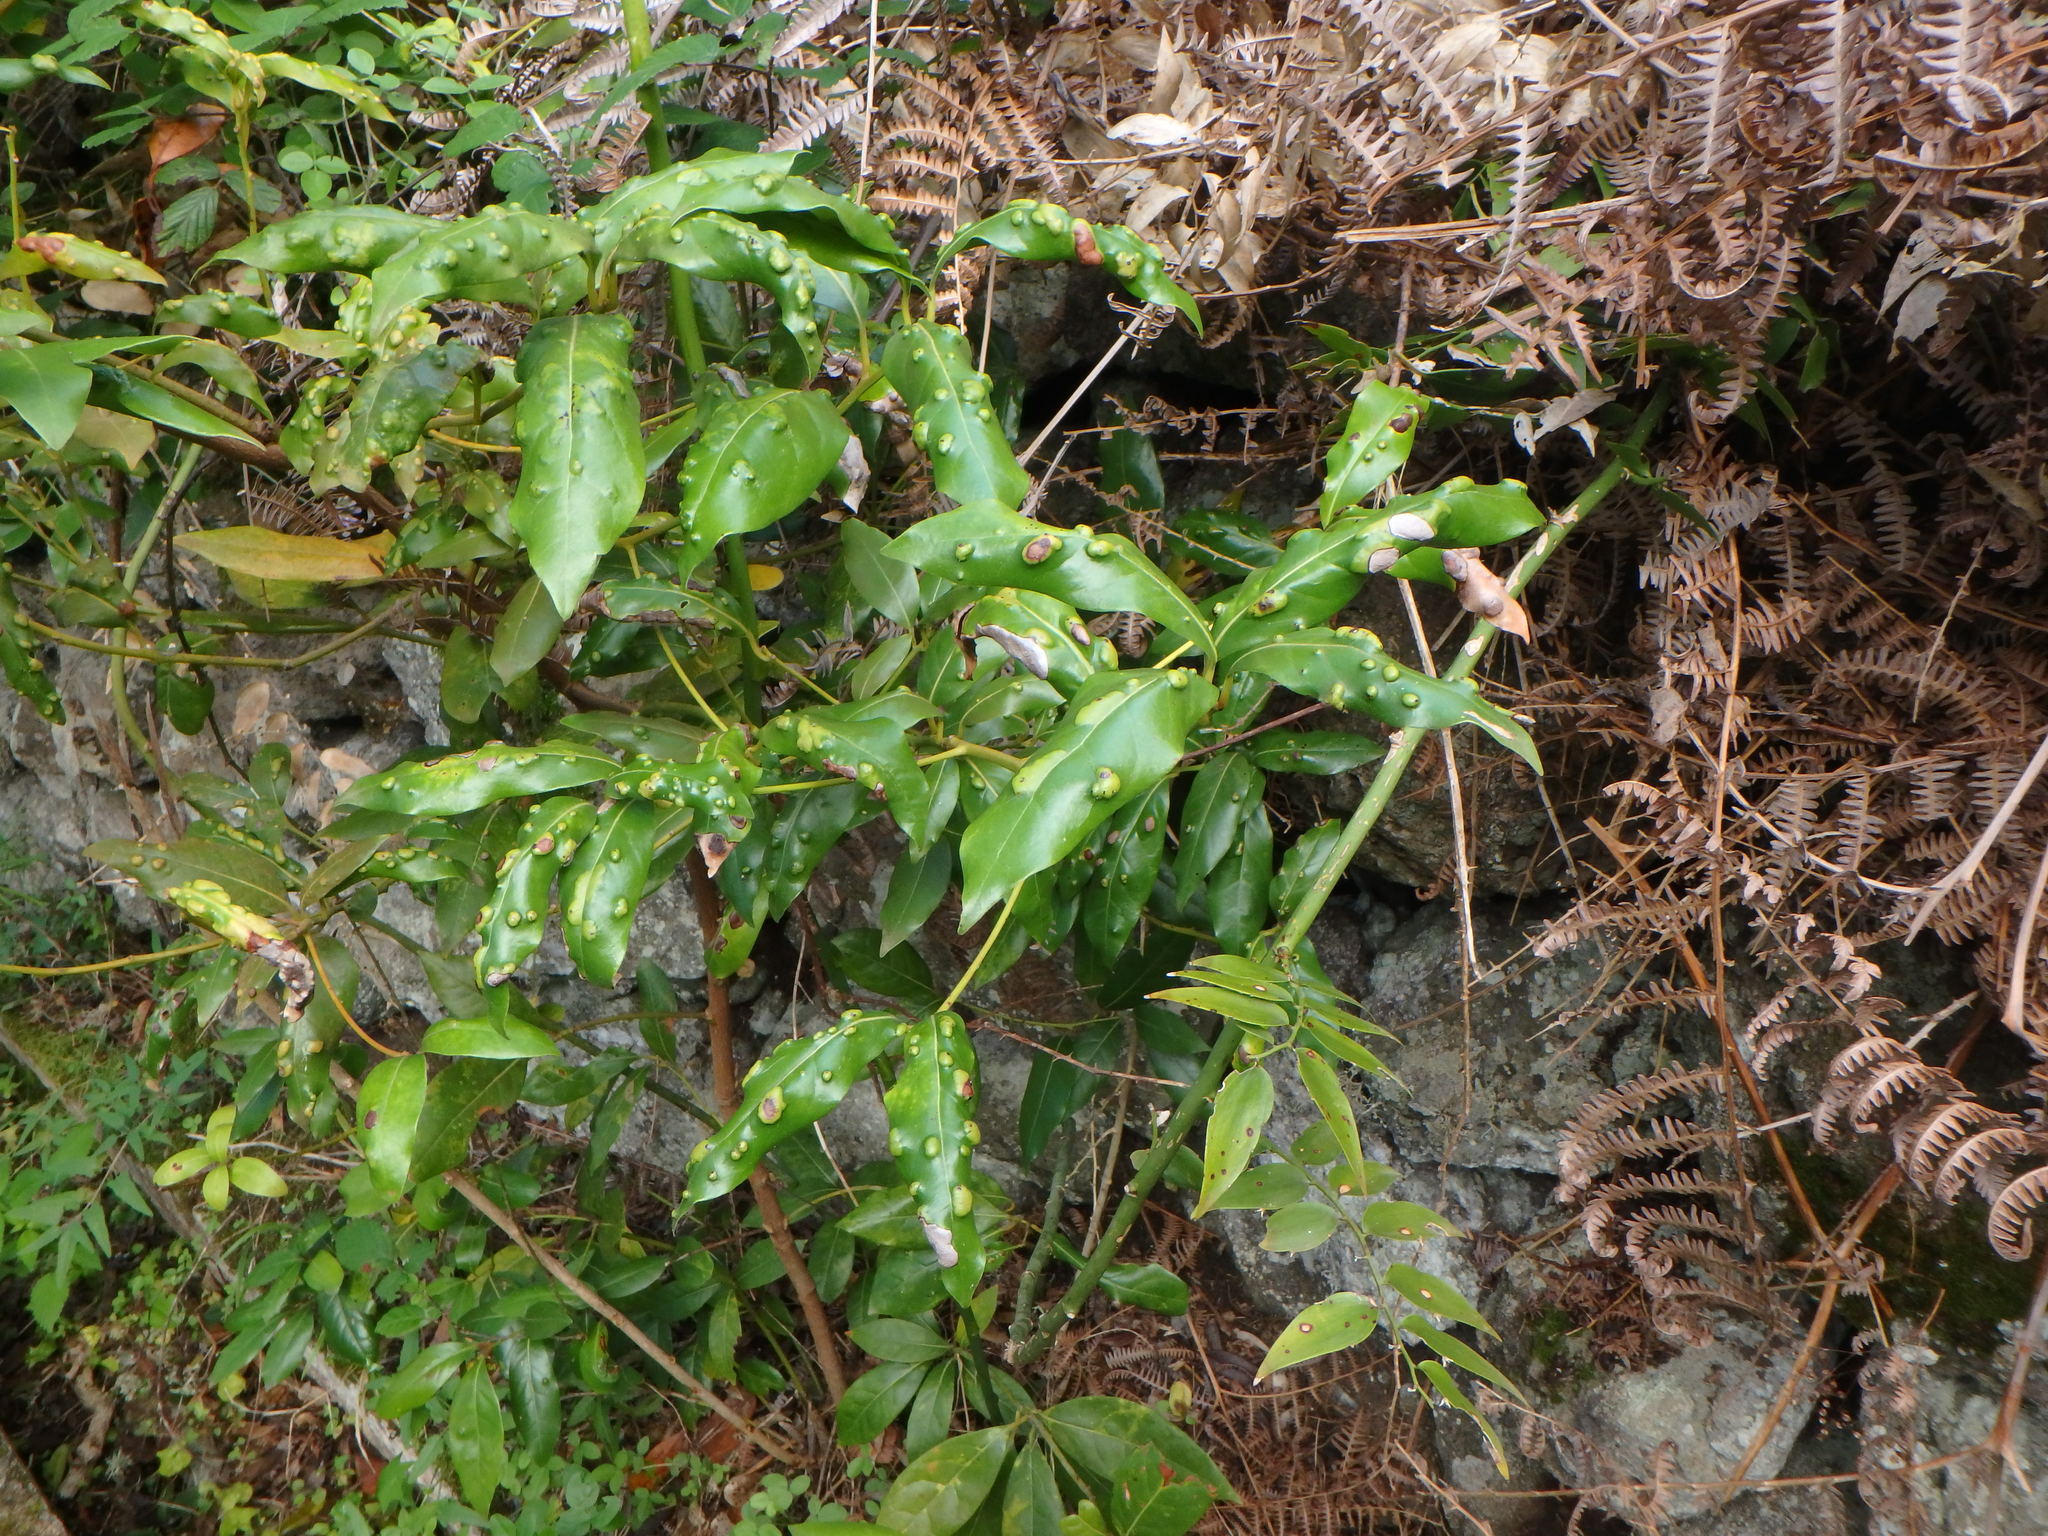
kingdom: Plantae
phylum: Tracheophyta
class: Magnoliopsida
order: Laurales
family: Lauraceae
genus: Apollonias
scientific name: Apollonias barbujana
